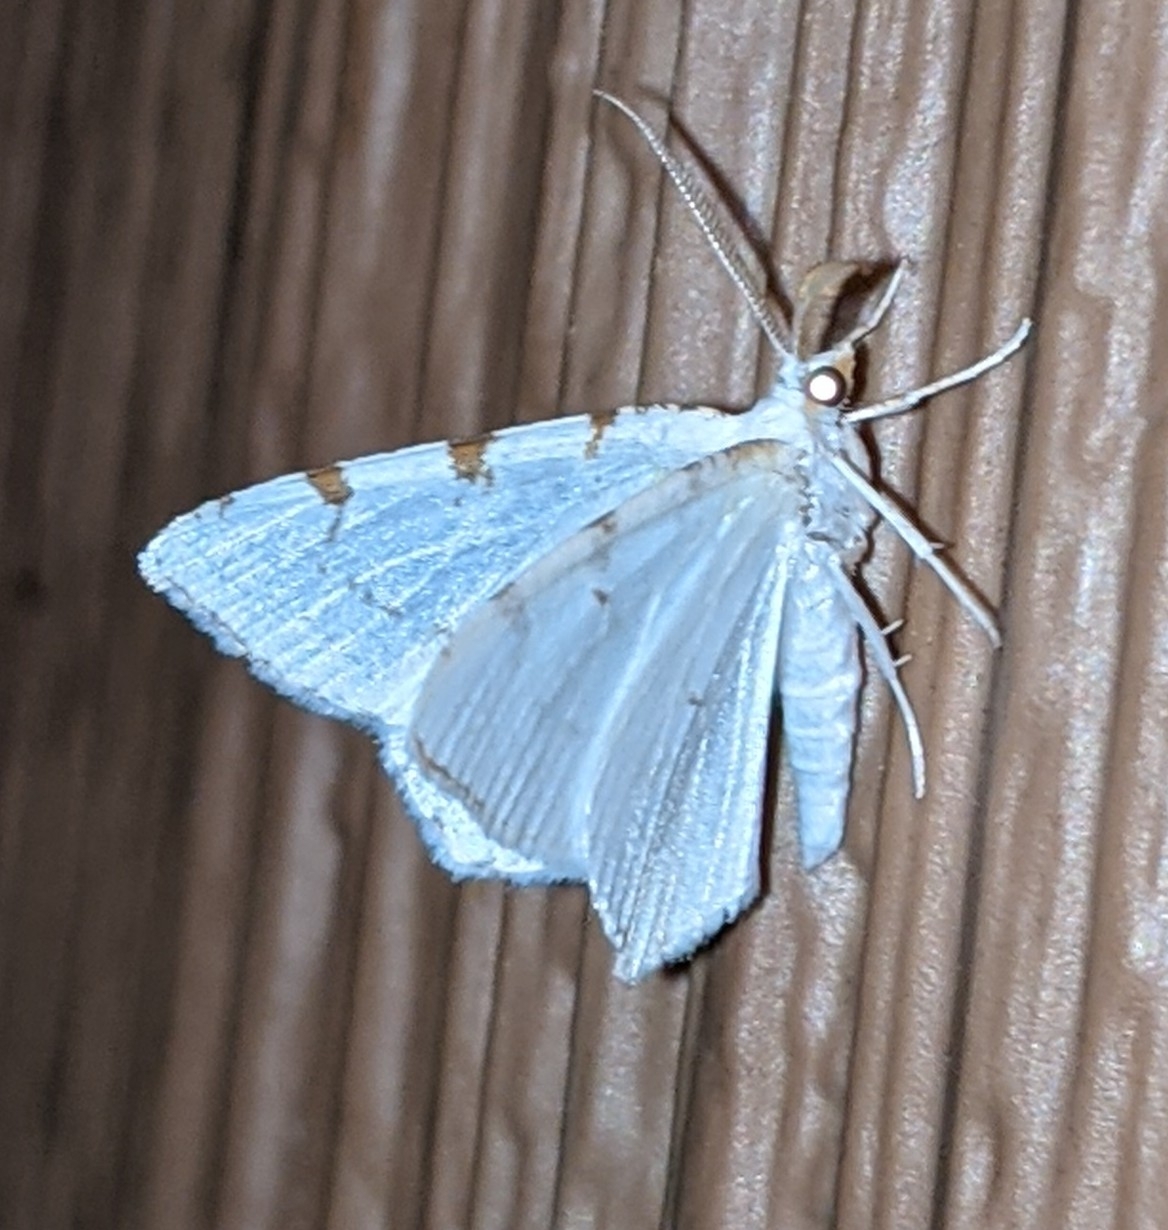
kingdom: Animalia
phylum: Arthropoda
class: Insecta
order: Lepidoptera
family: Geometridae
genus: Macaria
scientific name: Macaria pustularia
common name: Lesser maple spanworm moth
